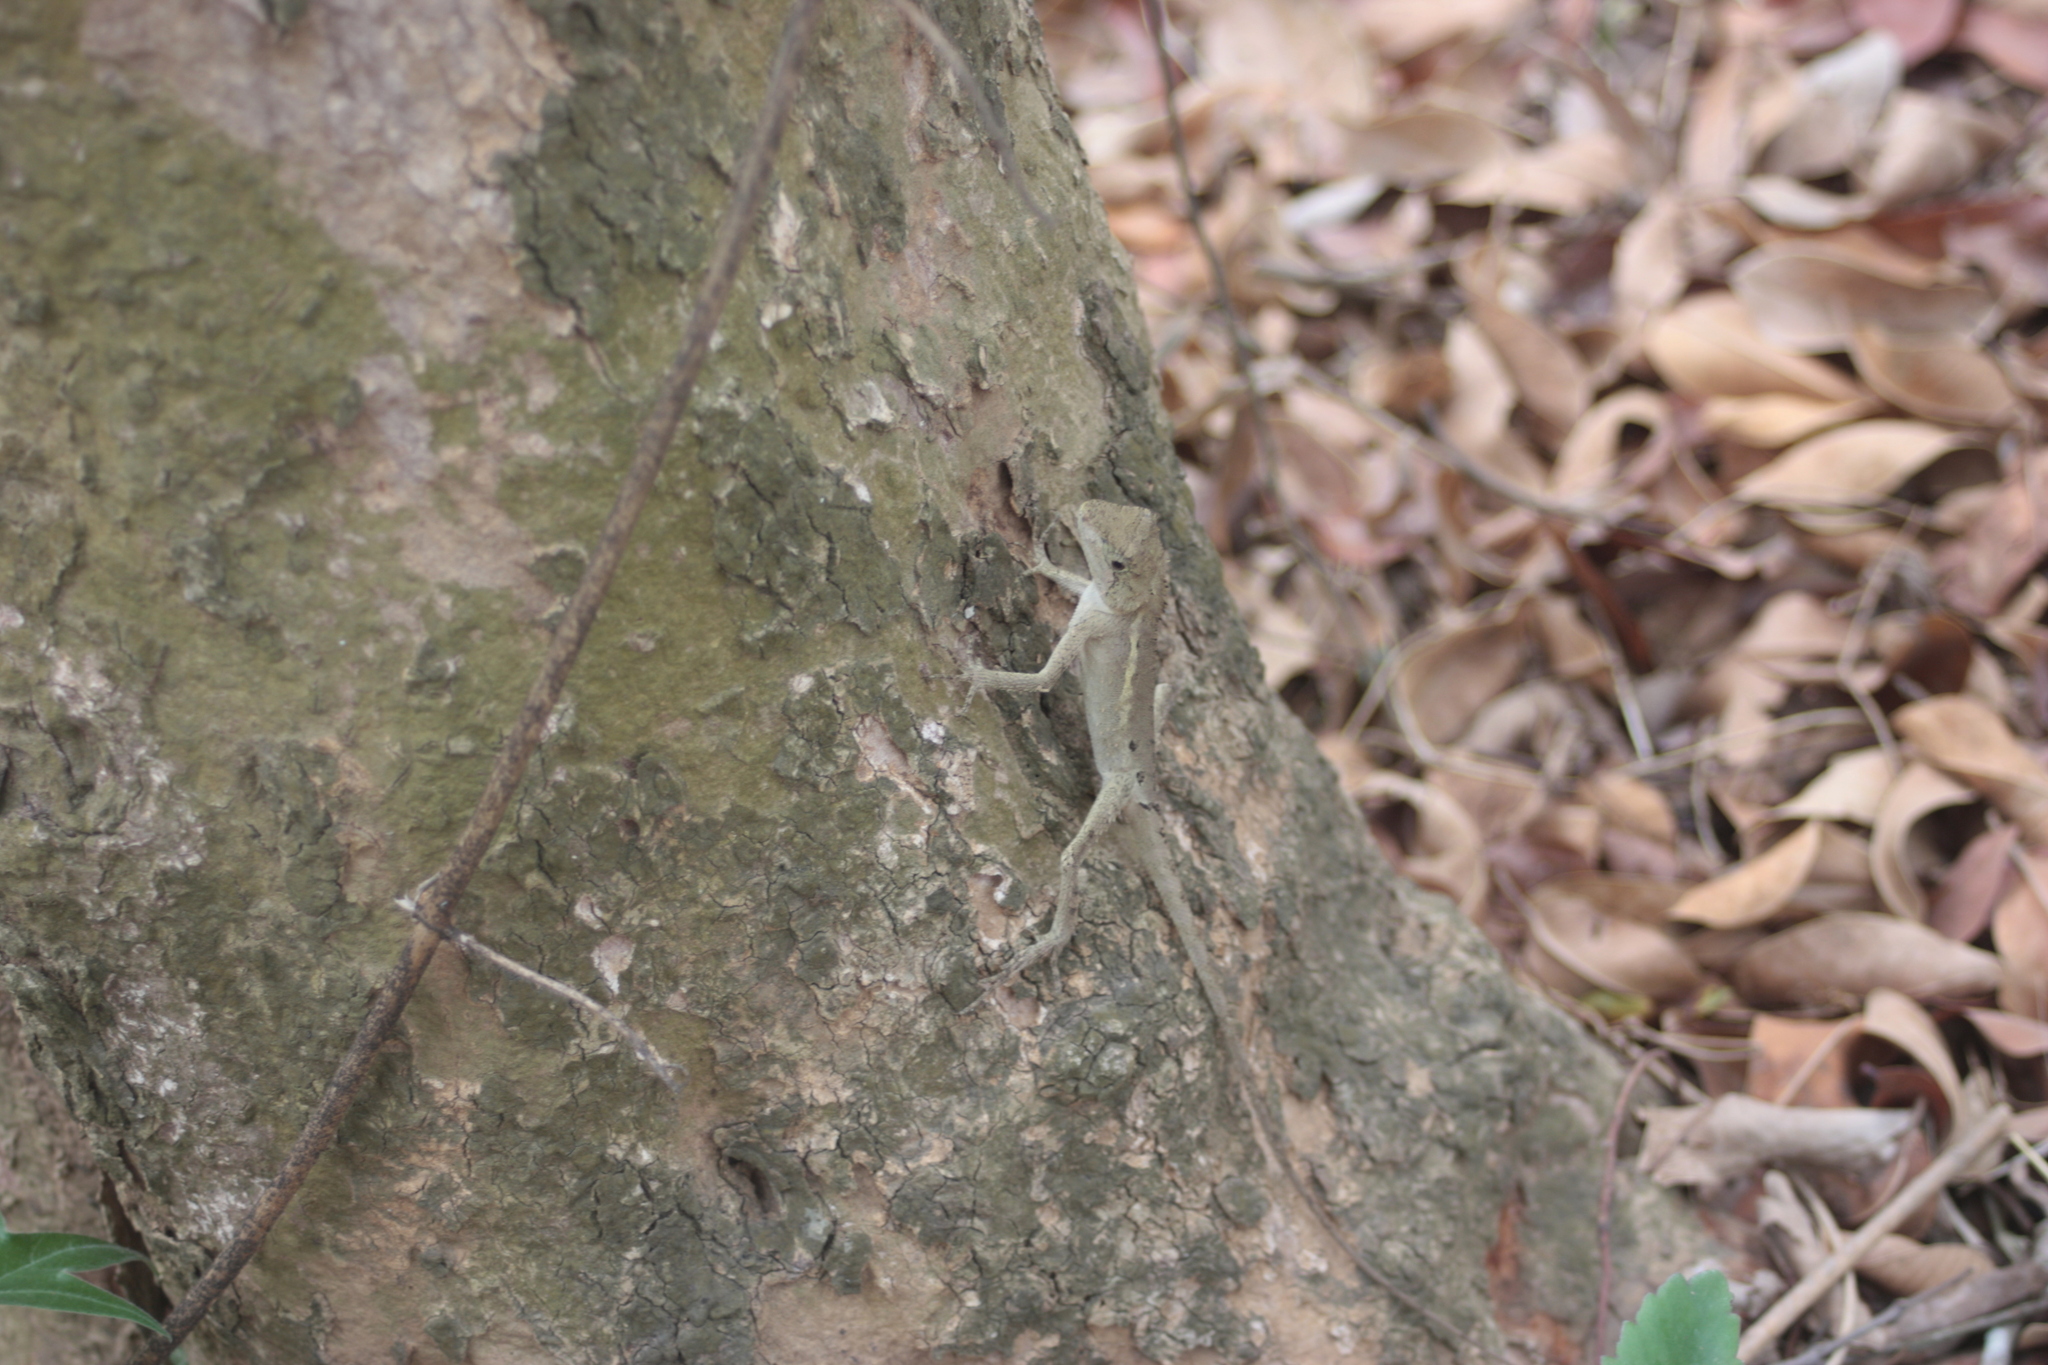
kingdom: Animalia
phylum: Chordata
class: Squamata
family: Agamidae
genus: Diploderma
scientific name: Diploderma swinhonis
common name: Taiwan japalure
